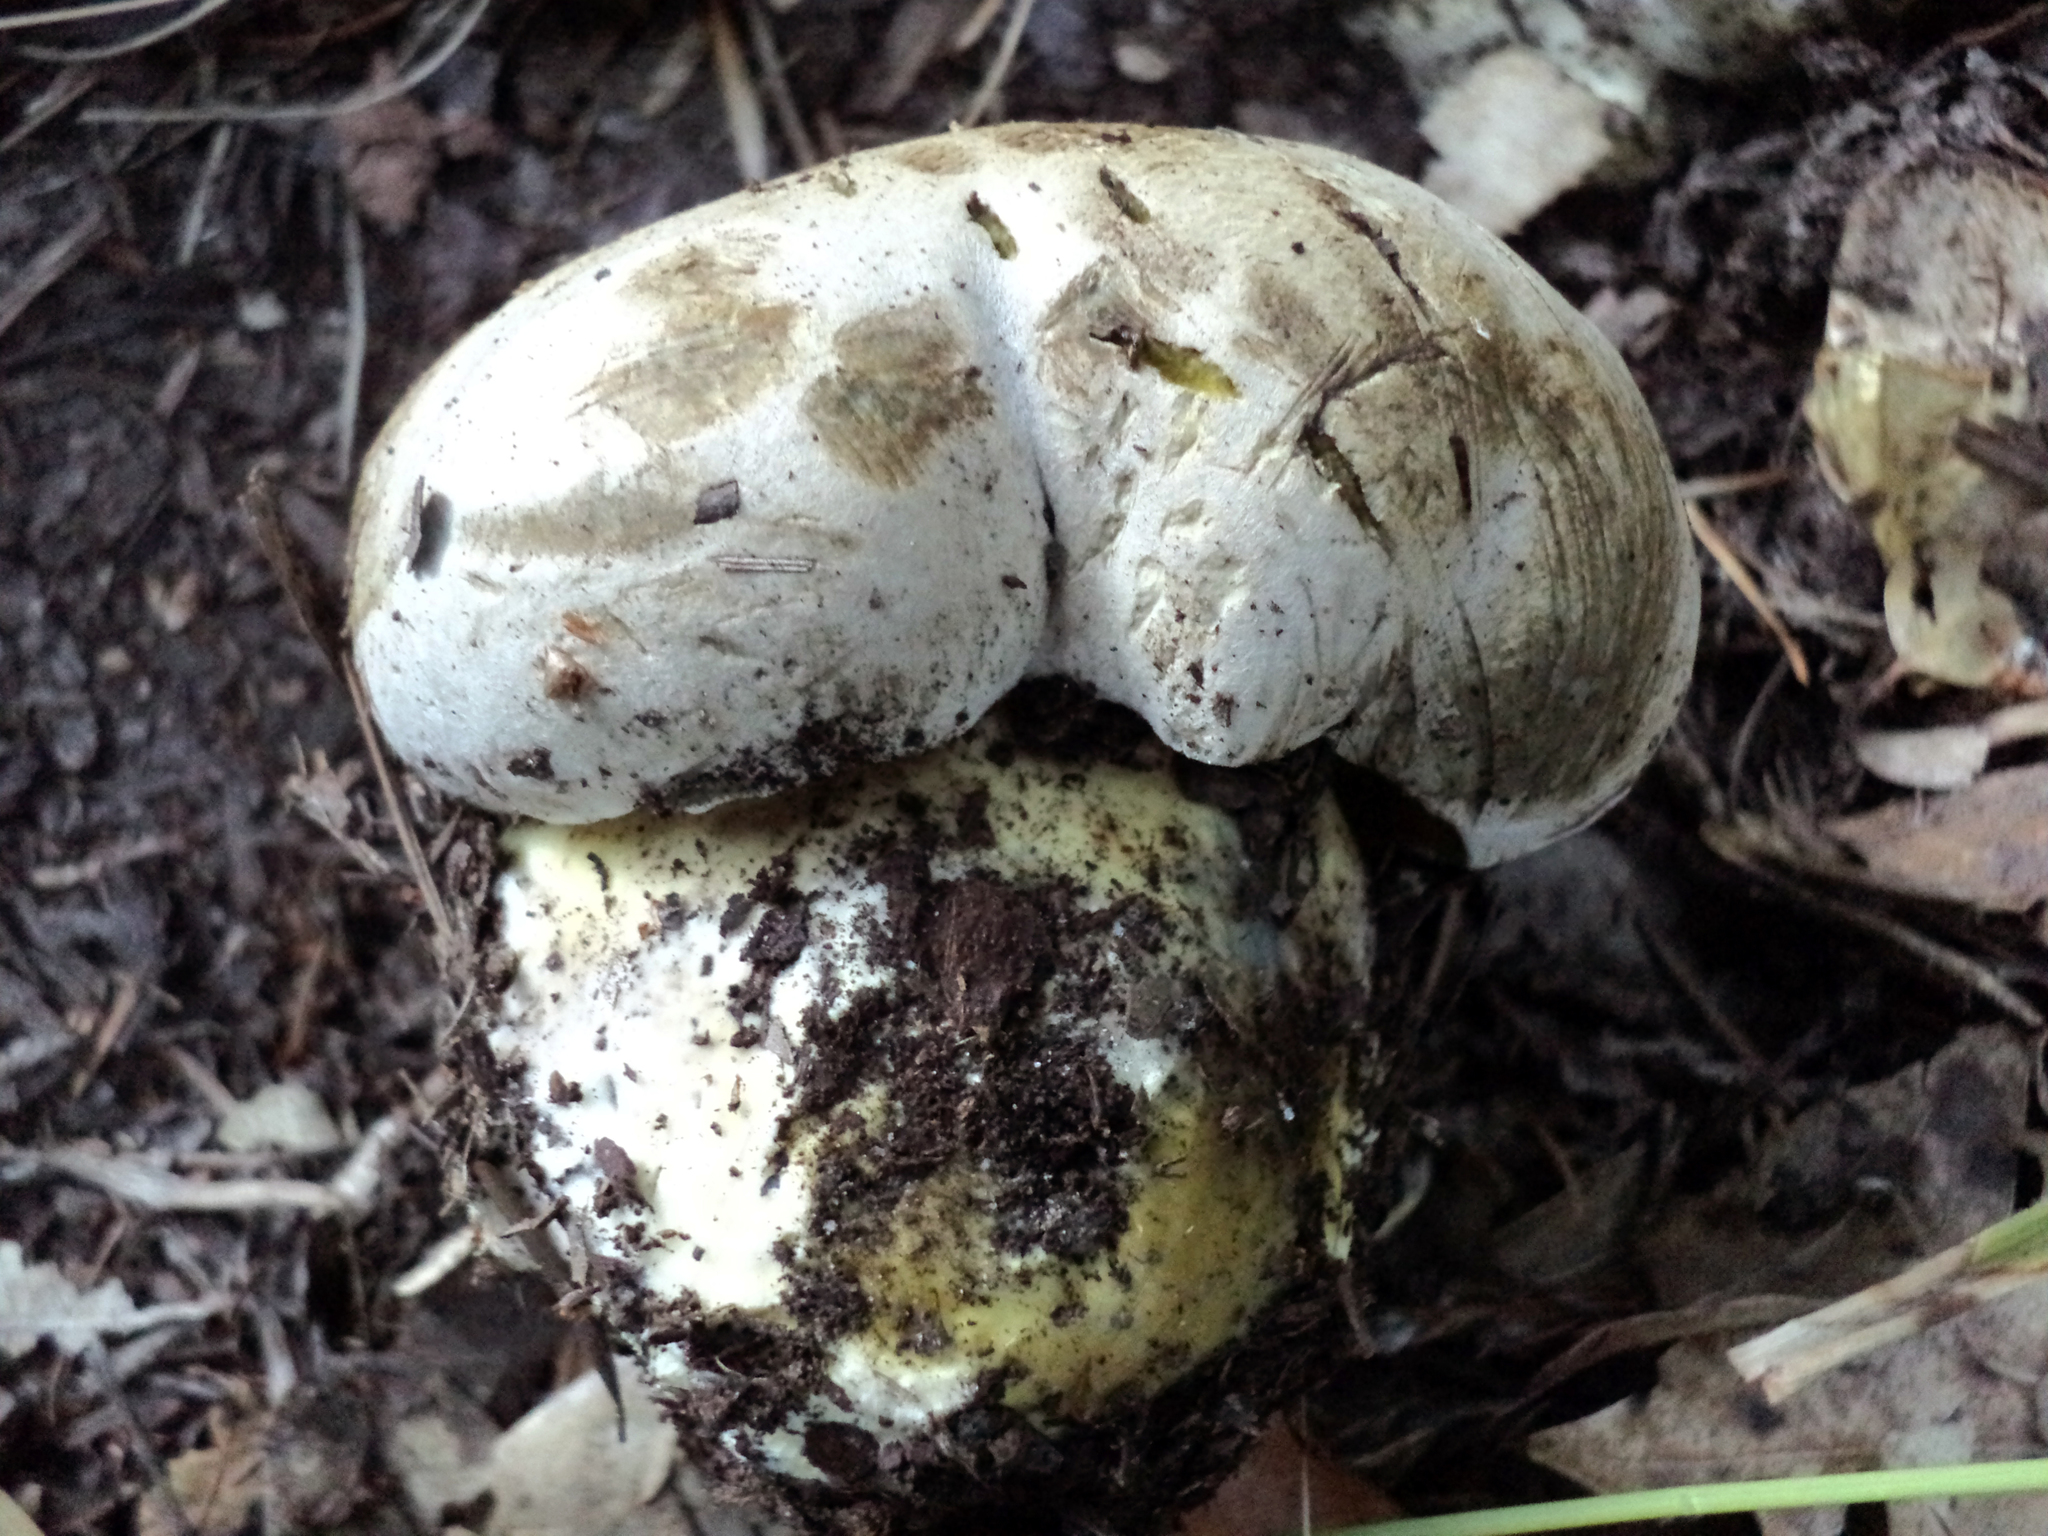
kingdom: Fungi
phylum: Basidiomycota
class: Agaricomycetes
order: Boletales
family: Boletaceae
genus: Caloboletus
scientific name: Caloboletus marshii
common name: Ben's bitter bolete
